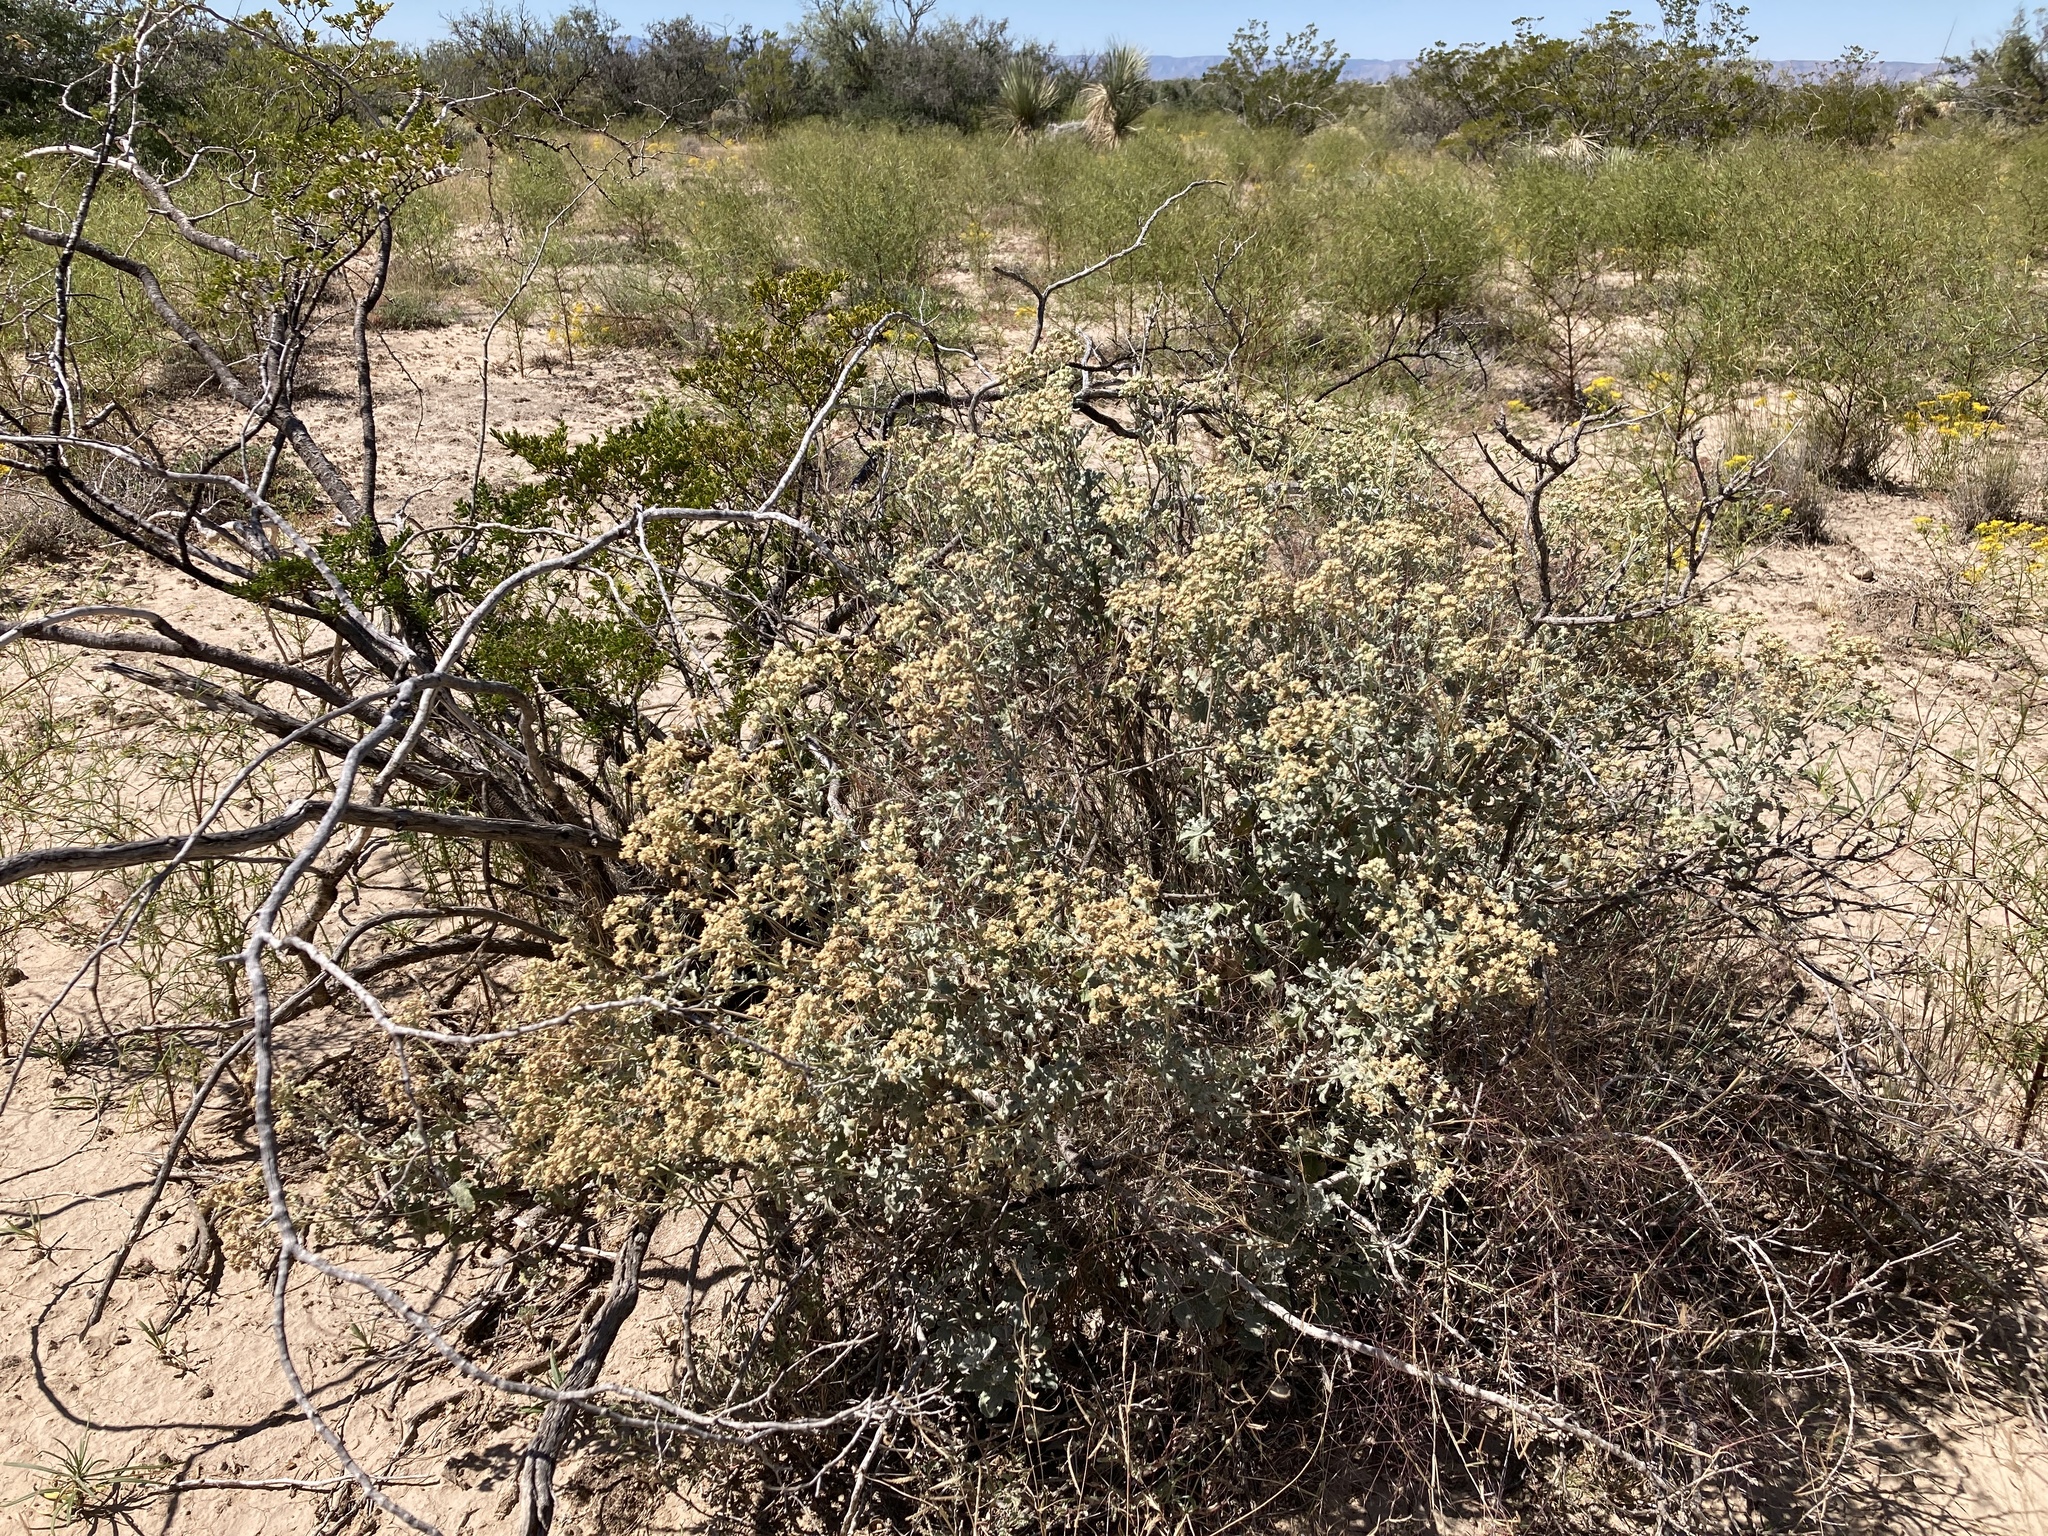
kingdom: Plantae
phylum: Tracheophyta
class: Magnoliopsida
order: Asterales
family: Asteraceae
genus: Parthenium
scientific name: Parthenium incanum
